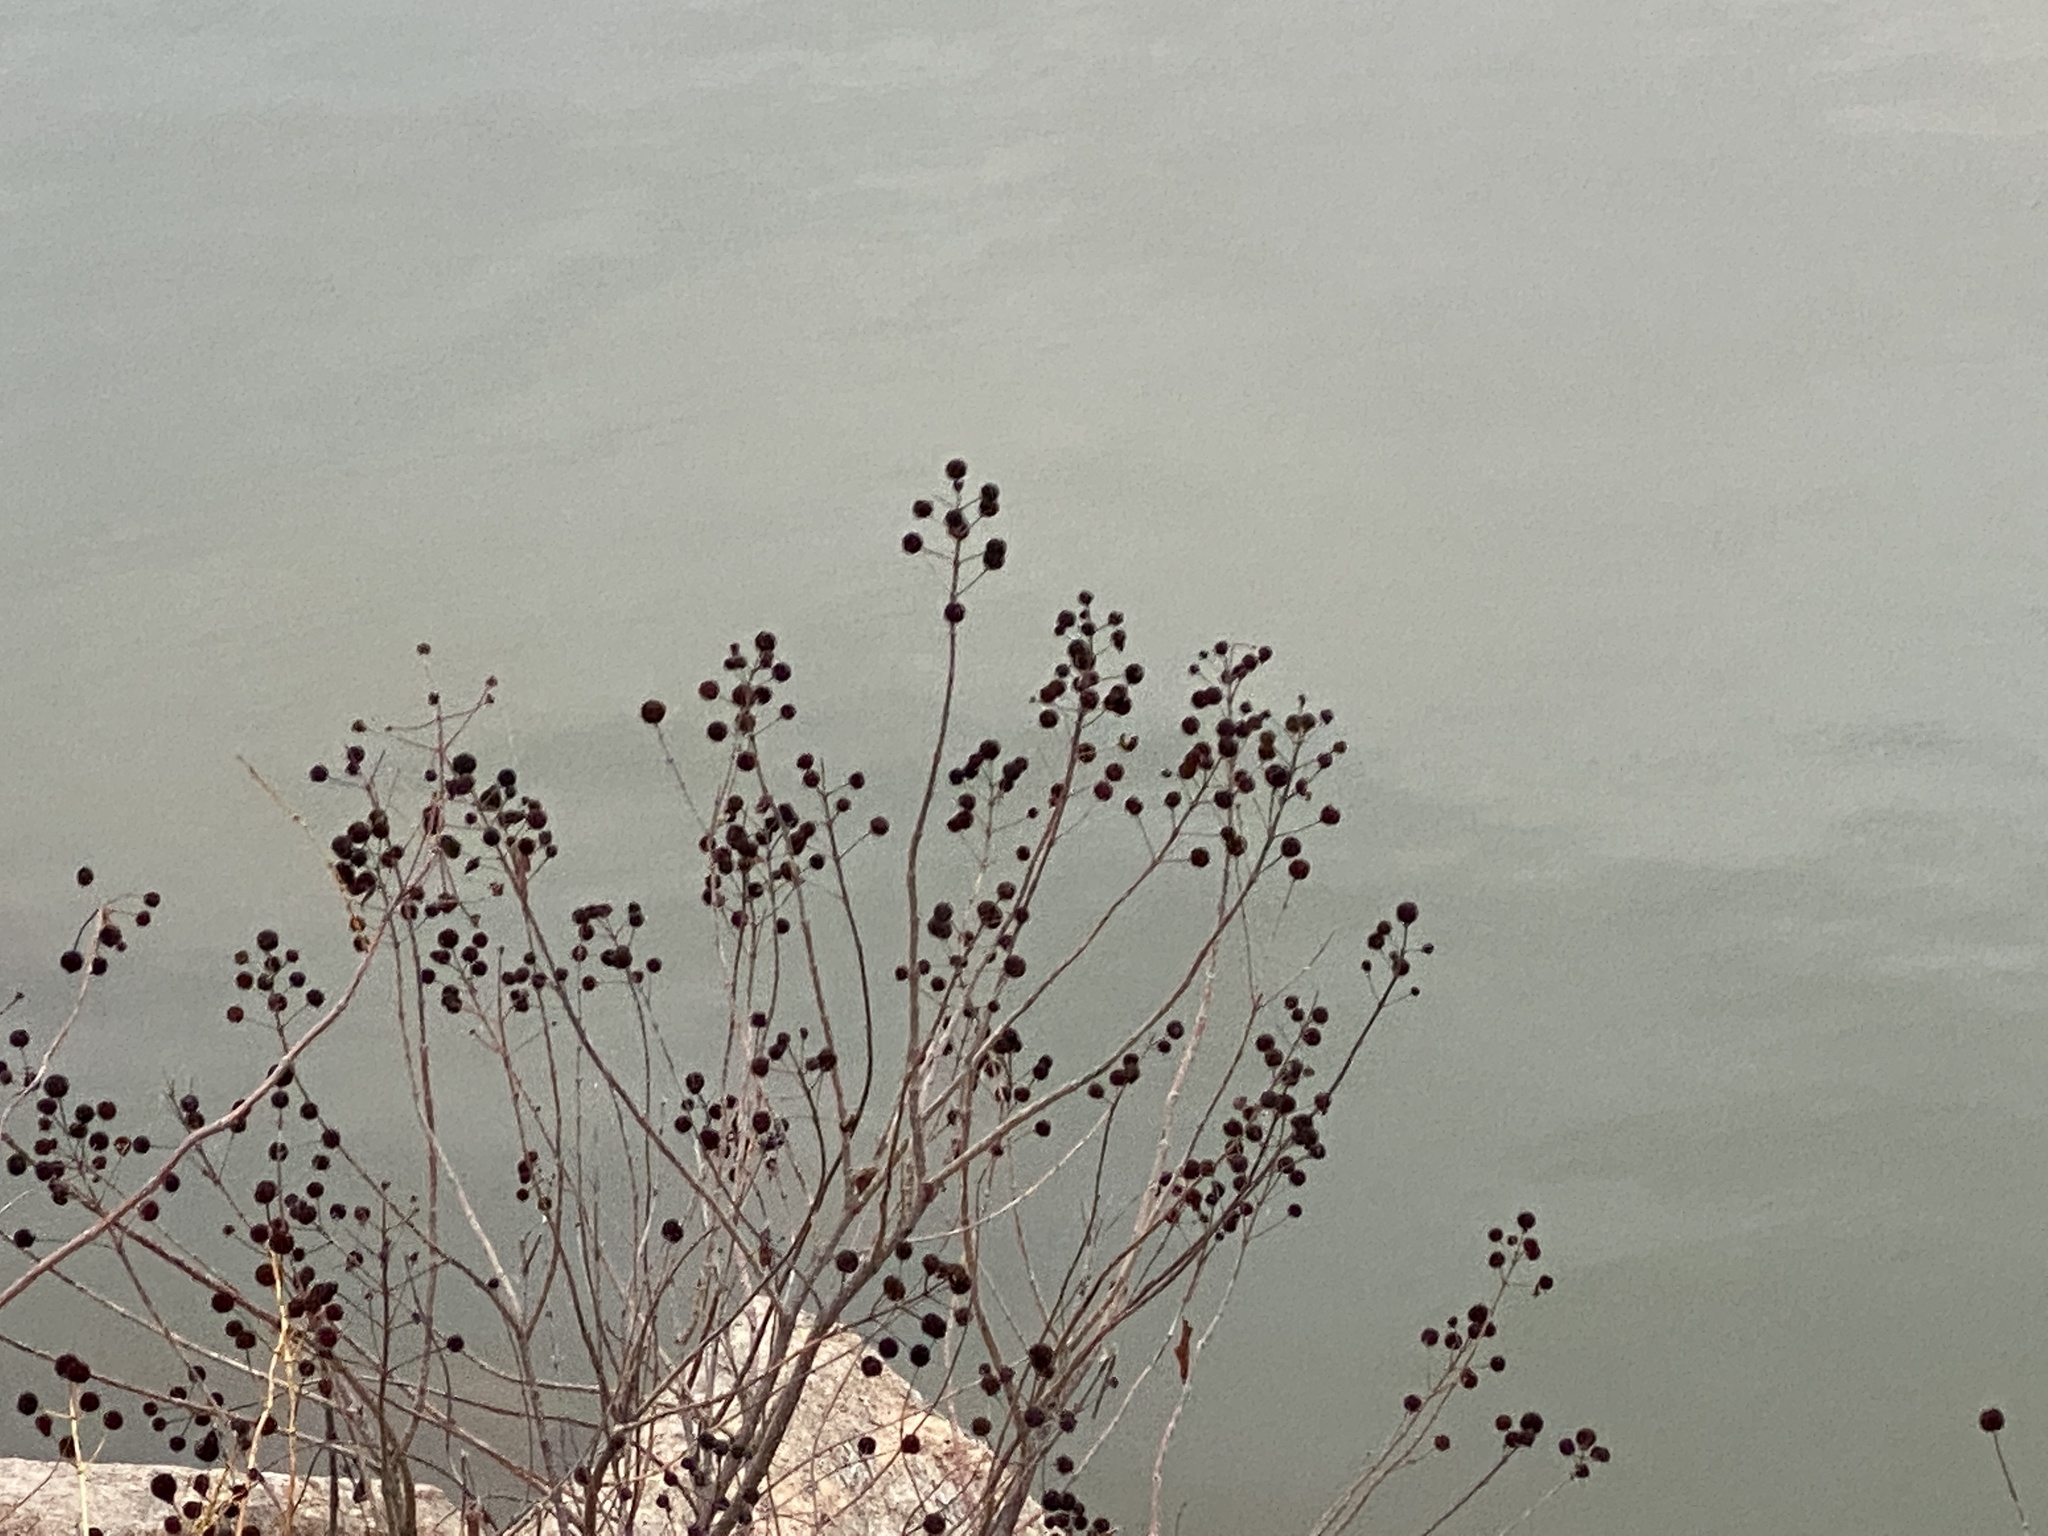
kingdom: Plantae
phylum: Tracheophyta
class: Magnoliopsida
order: Gentianales
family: Rubiaceae
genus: Cephalanthus
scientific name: Cephalanthus occidentalis
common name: Button-willow
